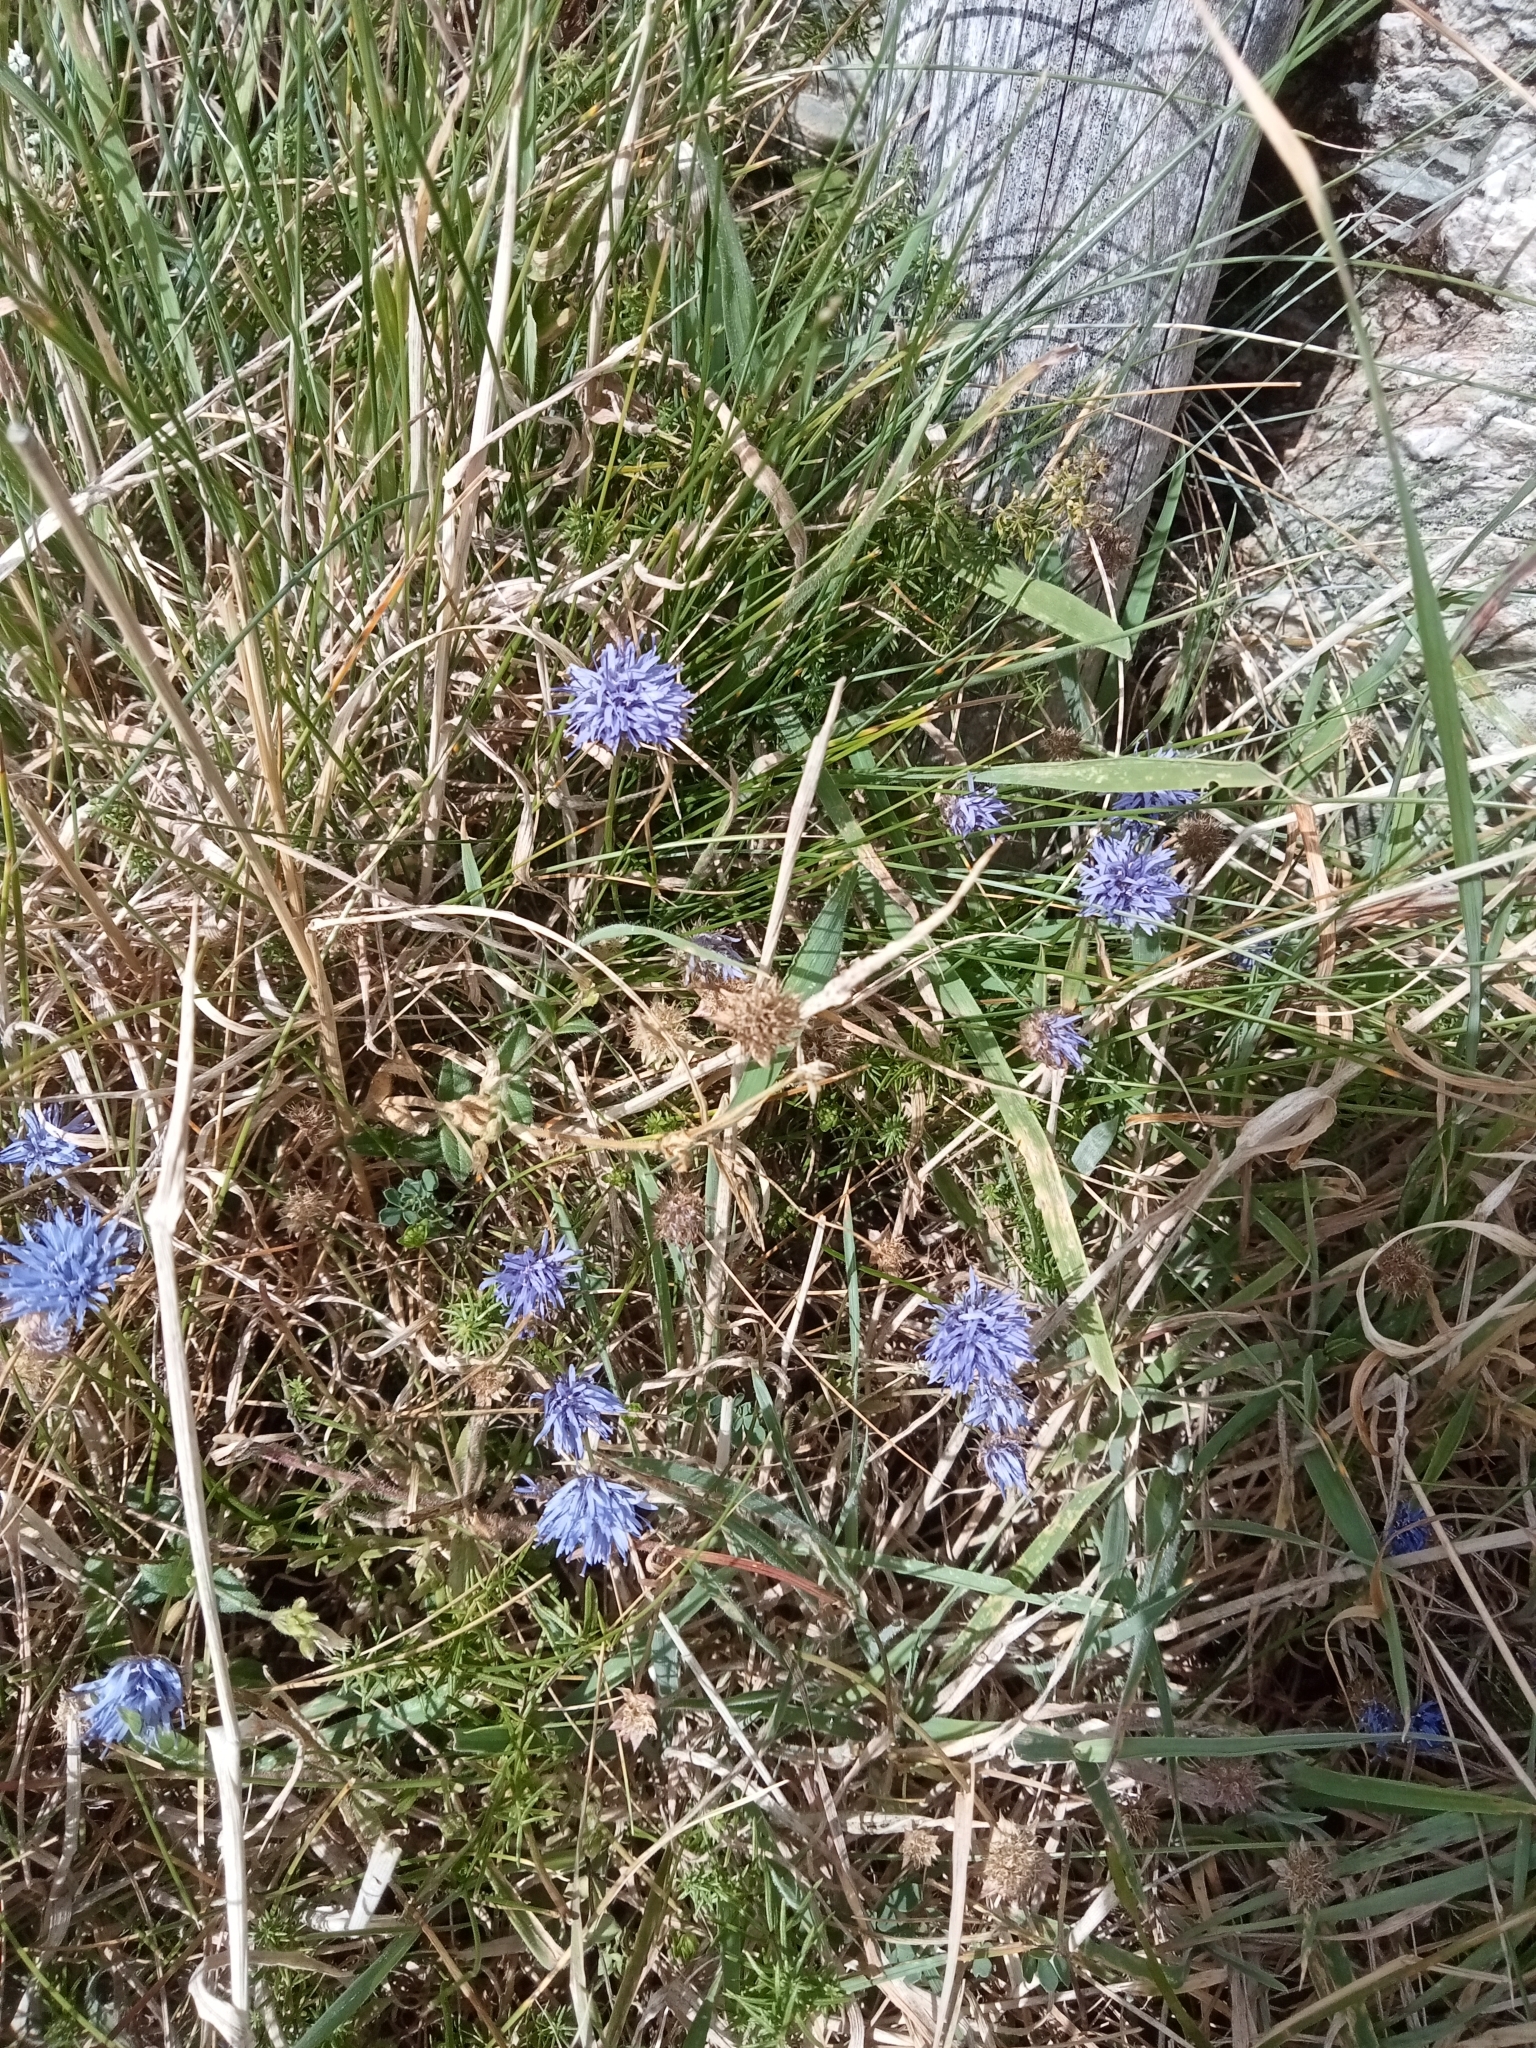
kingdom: Plantae
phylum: Tracheophyta
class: Magnoliopsida
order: Asterales
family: Campanulaceae
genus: Jasione
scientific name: Jasione montana
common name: Sheep's-bit
